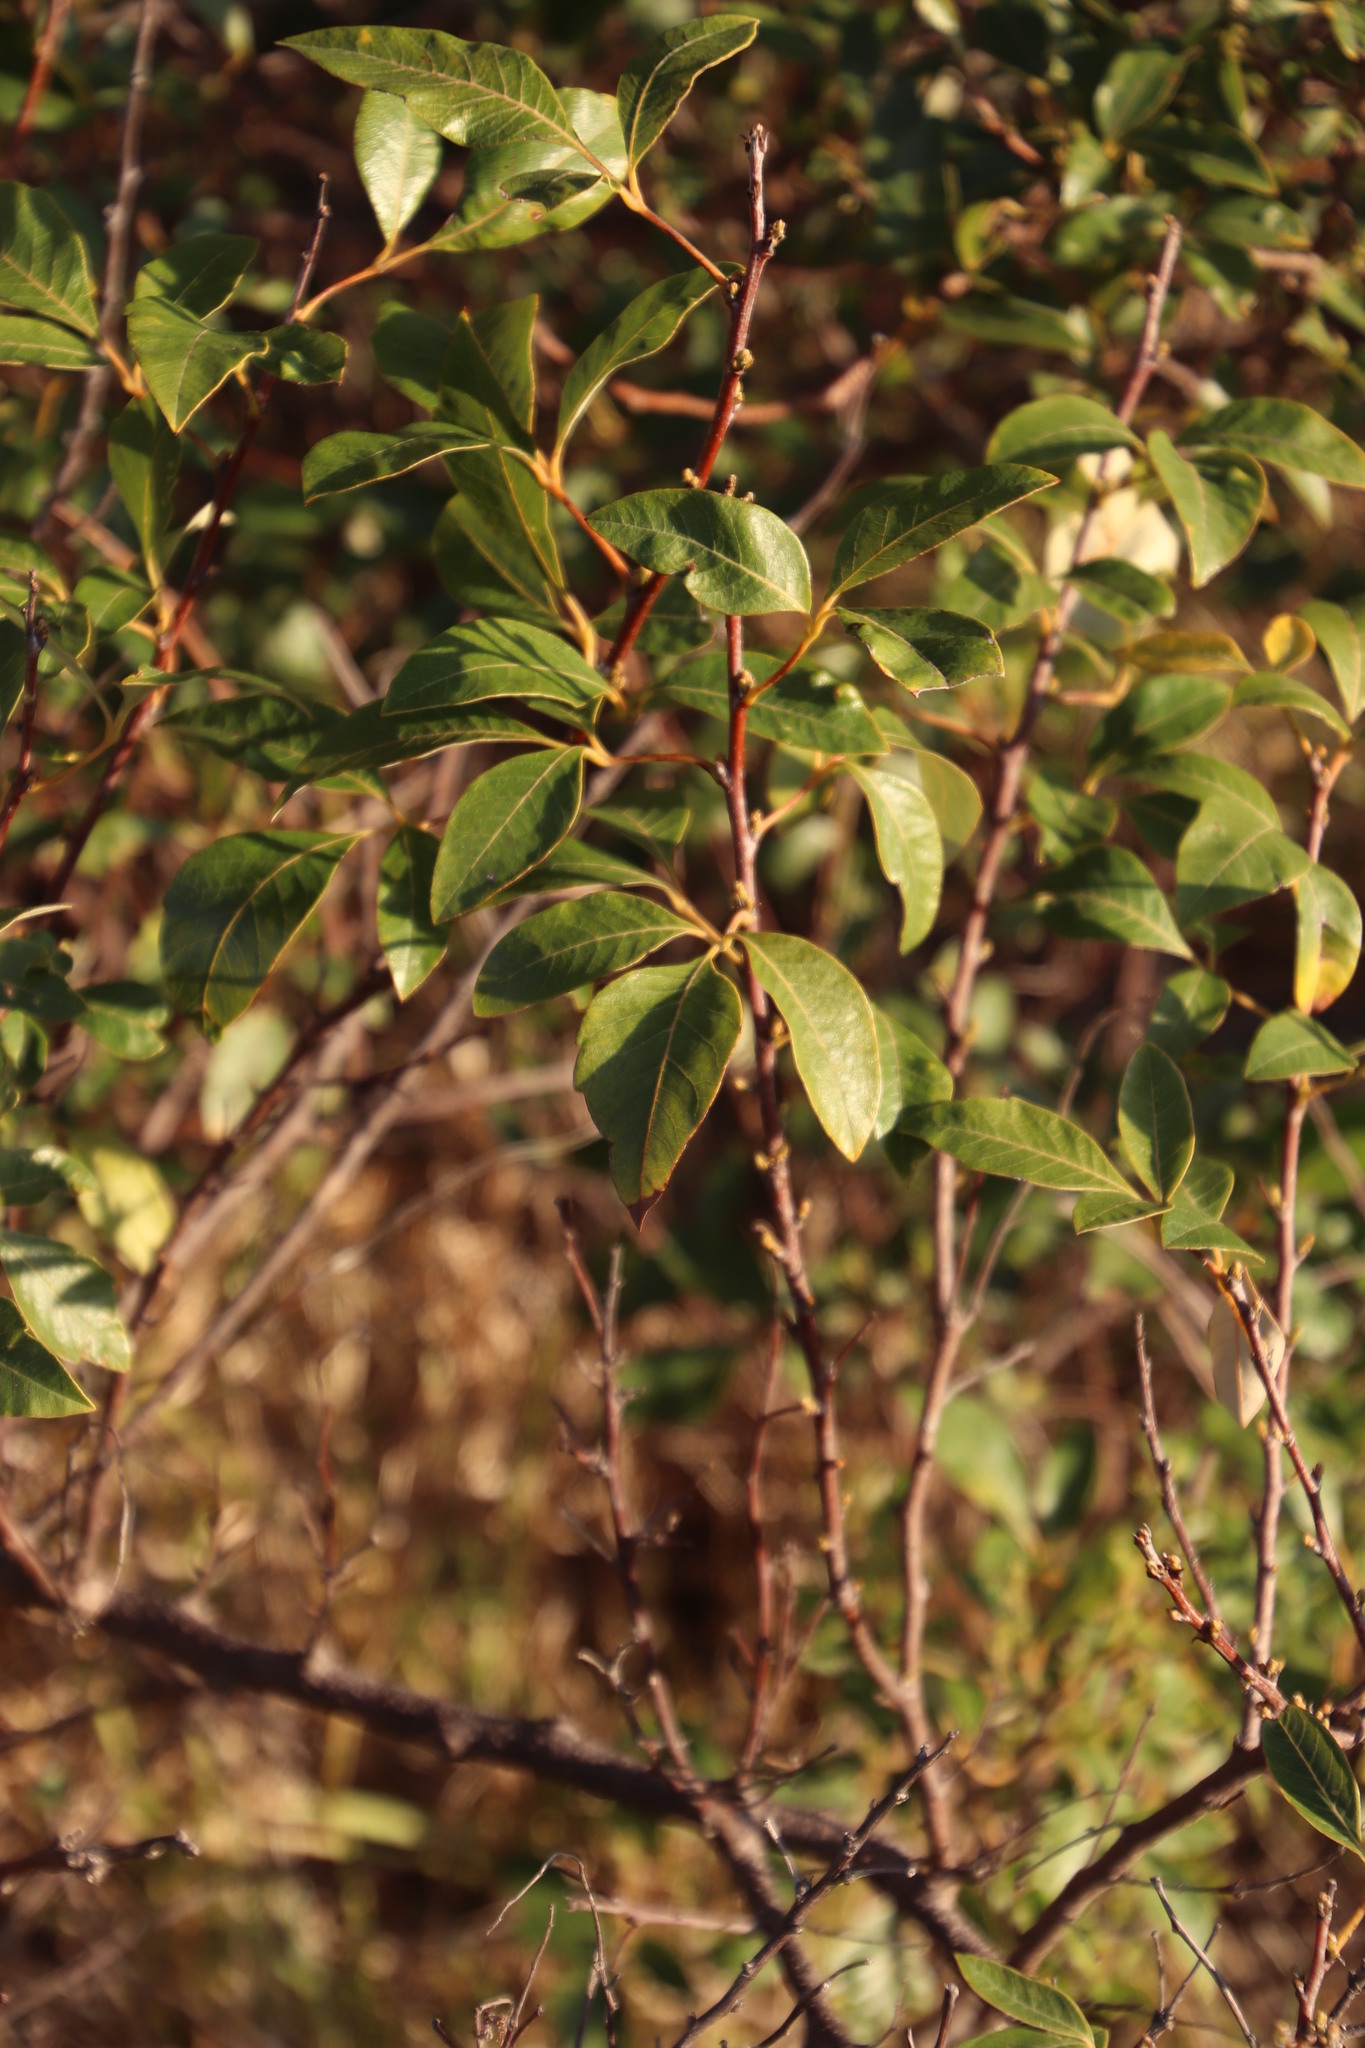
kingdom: Plantae
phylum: Tracheophyta
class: Magnoliopsida
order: Sapindales
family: Anacardiaceae
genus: Searsia
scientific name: Searsia tomentosa
